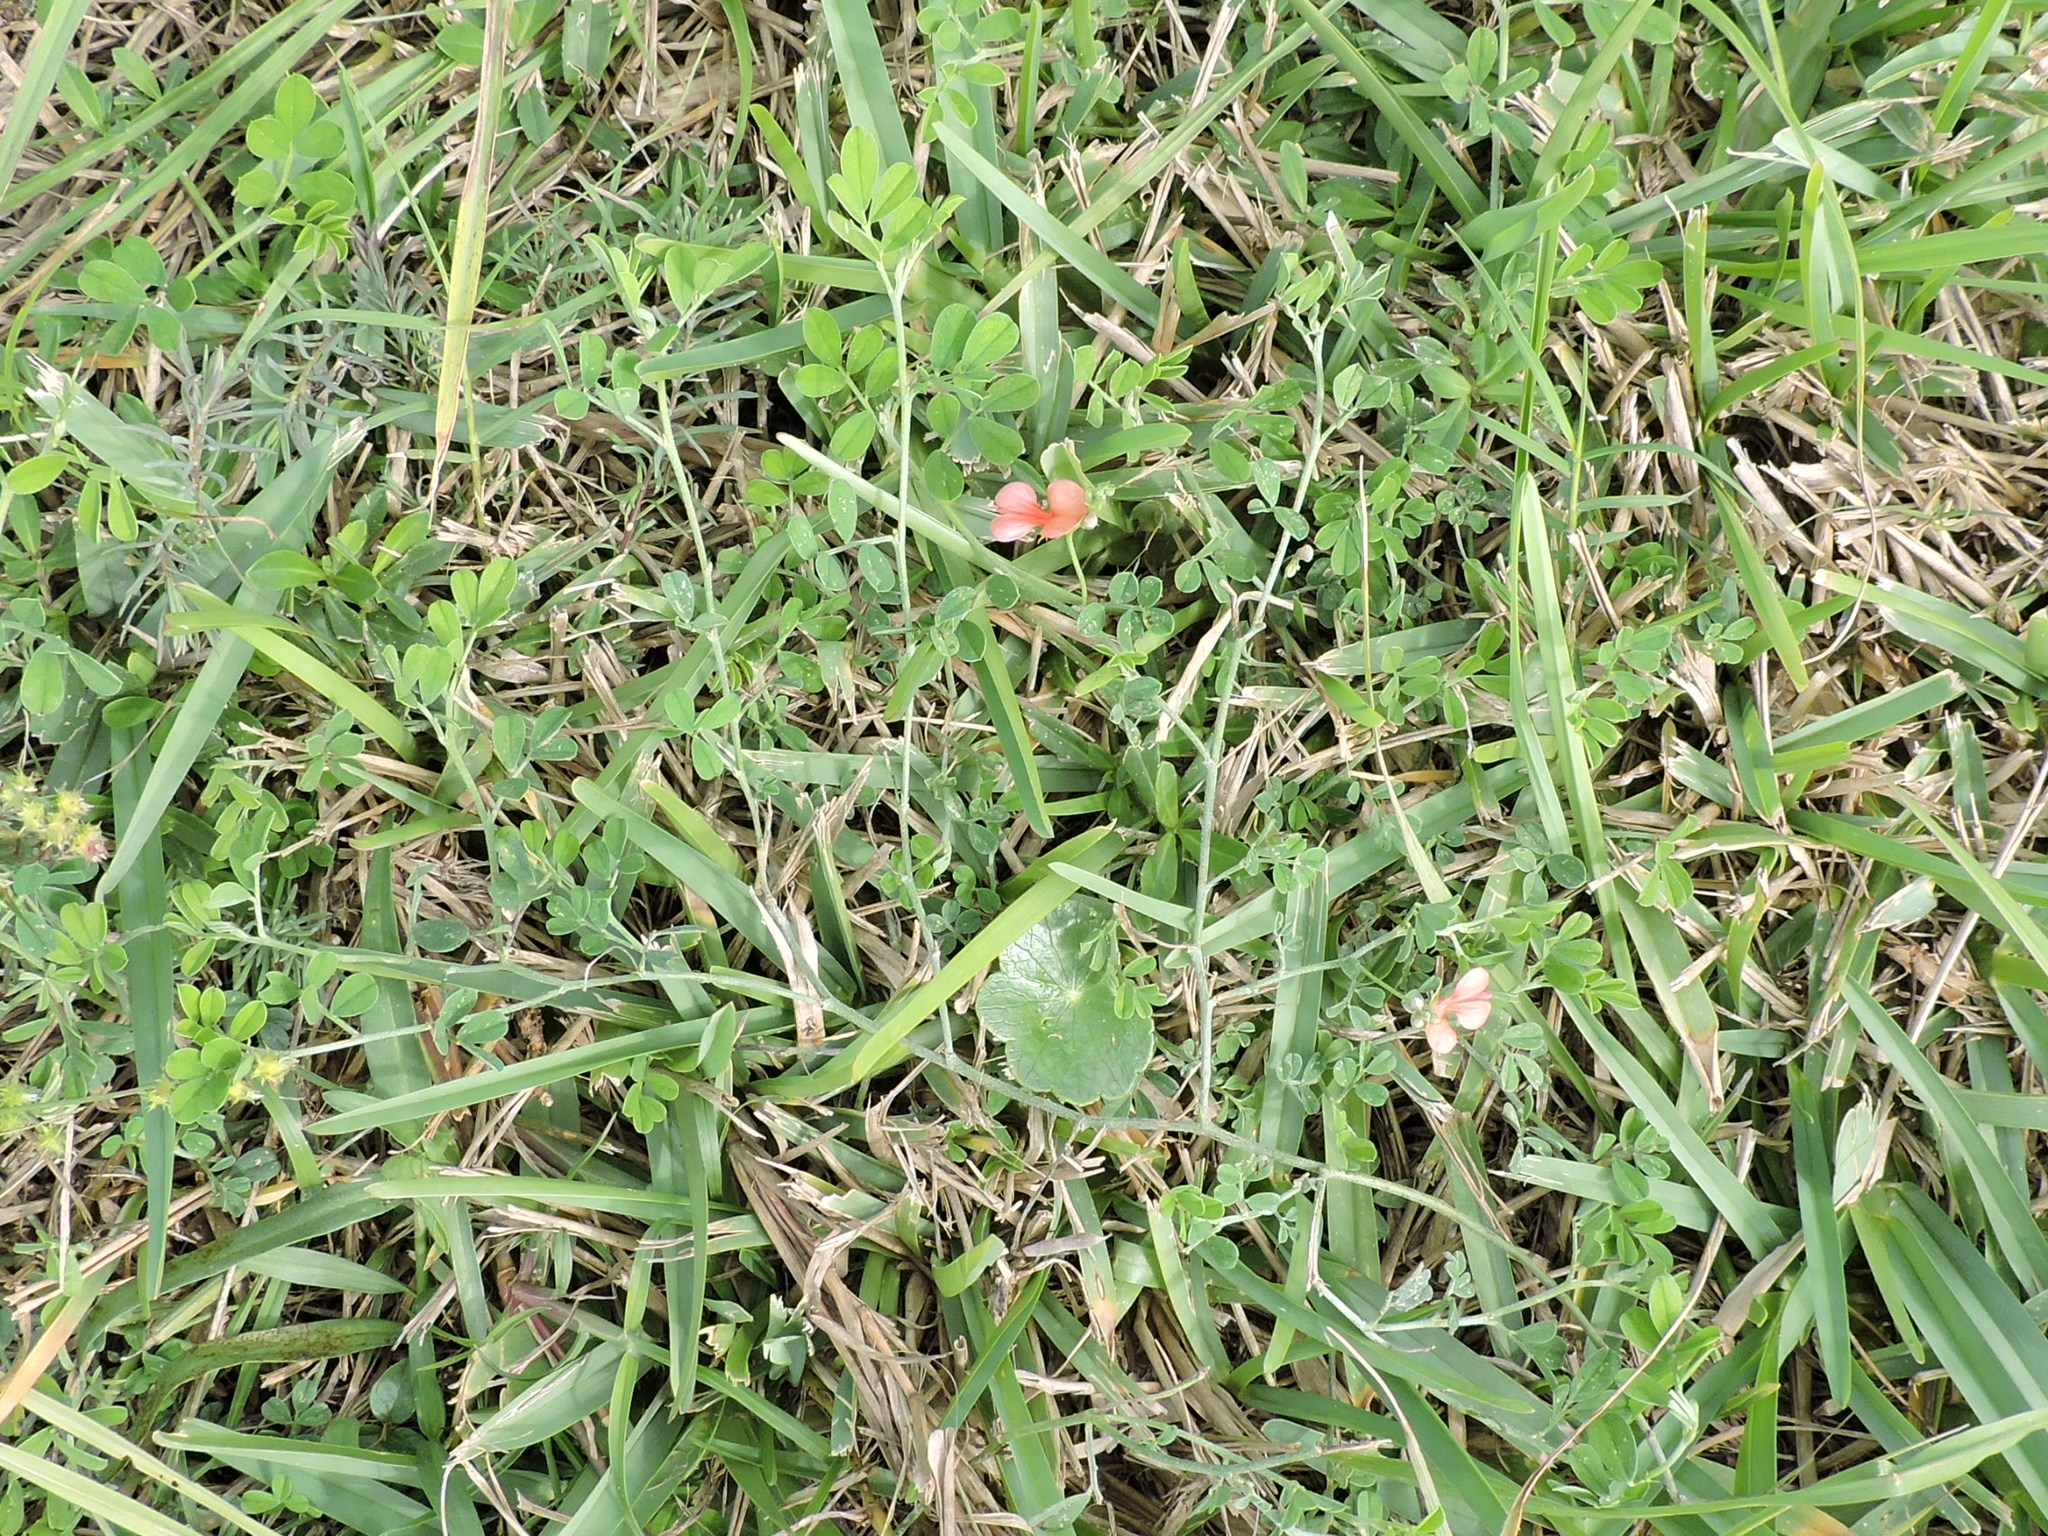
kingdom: Plantae
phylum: Tracheophyta
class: Magnoliopsida
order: Fabales
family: Fabaceae
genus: Indigofera
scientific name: Indigofera miniata
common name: Coast indigo
